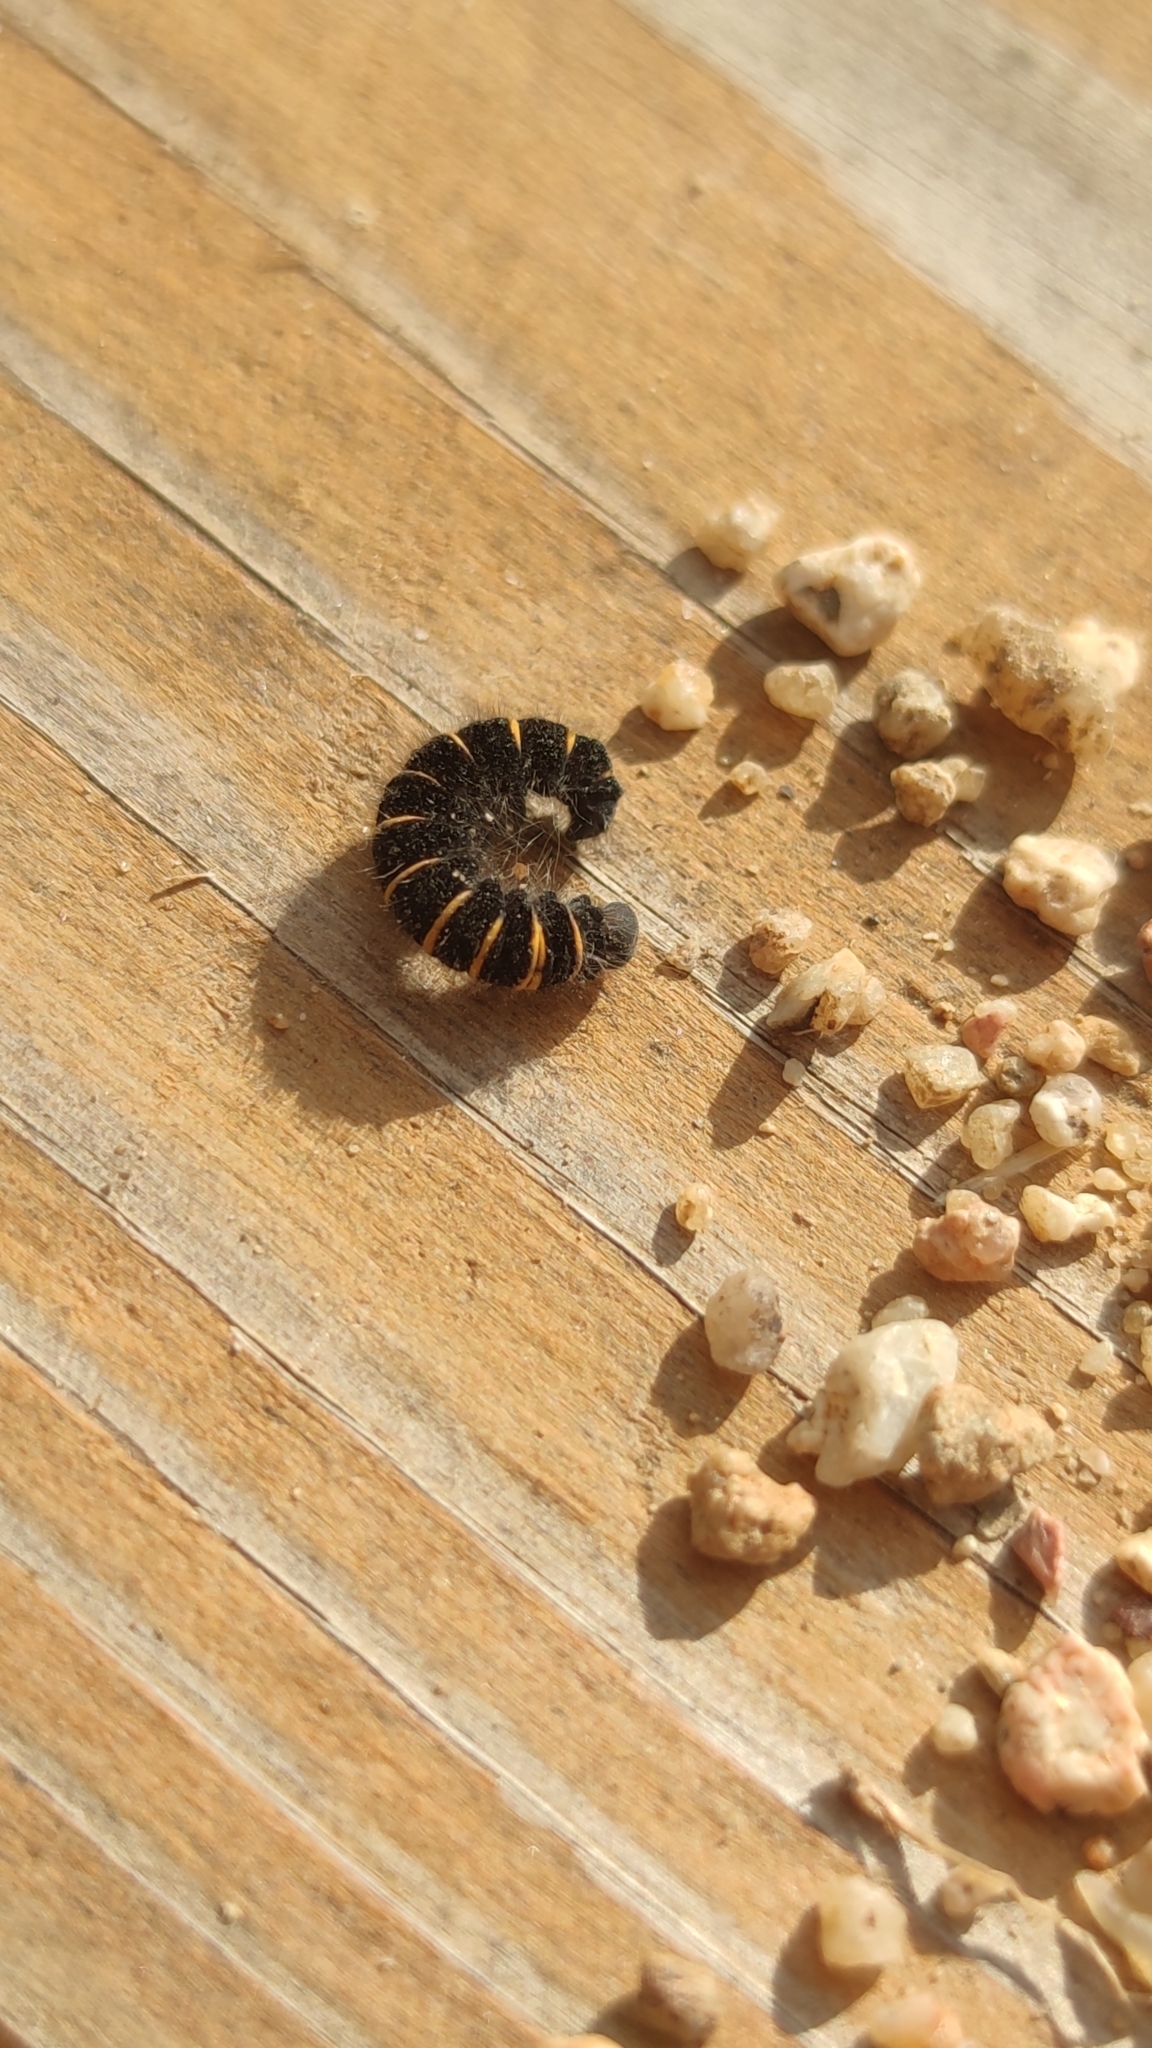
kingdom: Animalia
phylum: Arthropoda
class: Insecta
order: Lepidoptera
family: Lasiocampidae
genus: Macrothylacia
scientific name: Macrothylacia rubi
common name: Fox moth
